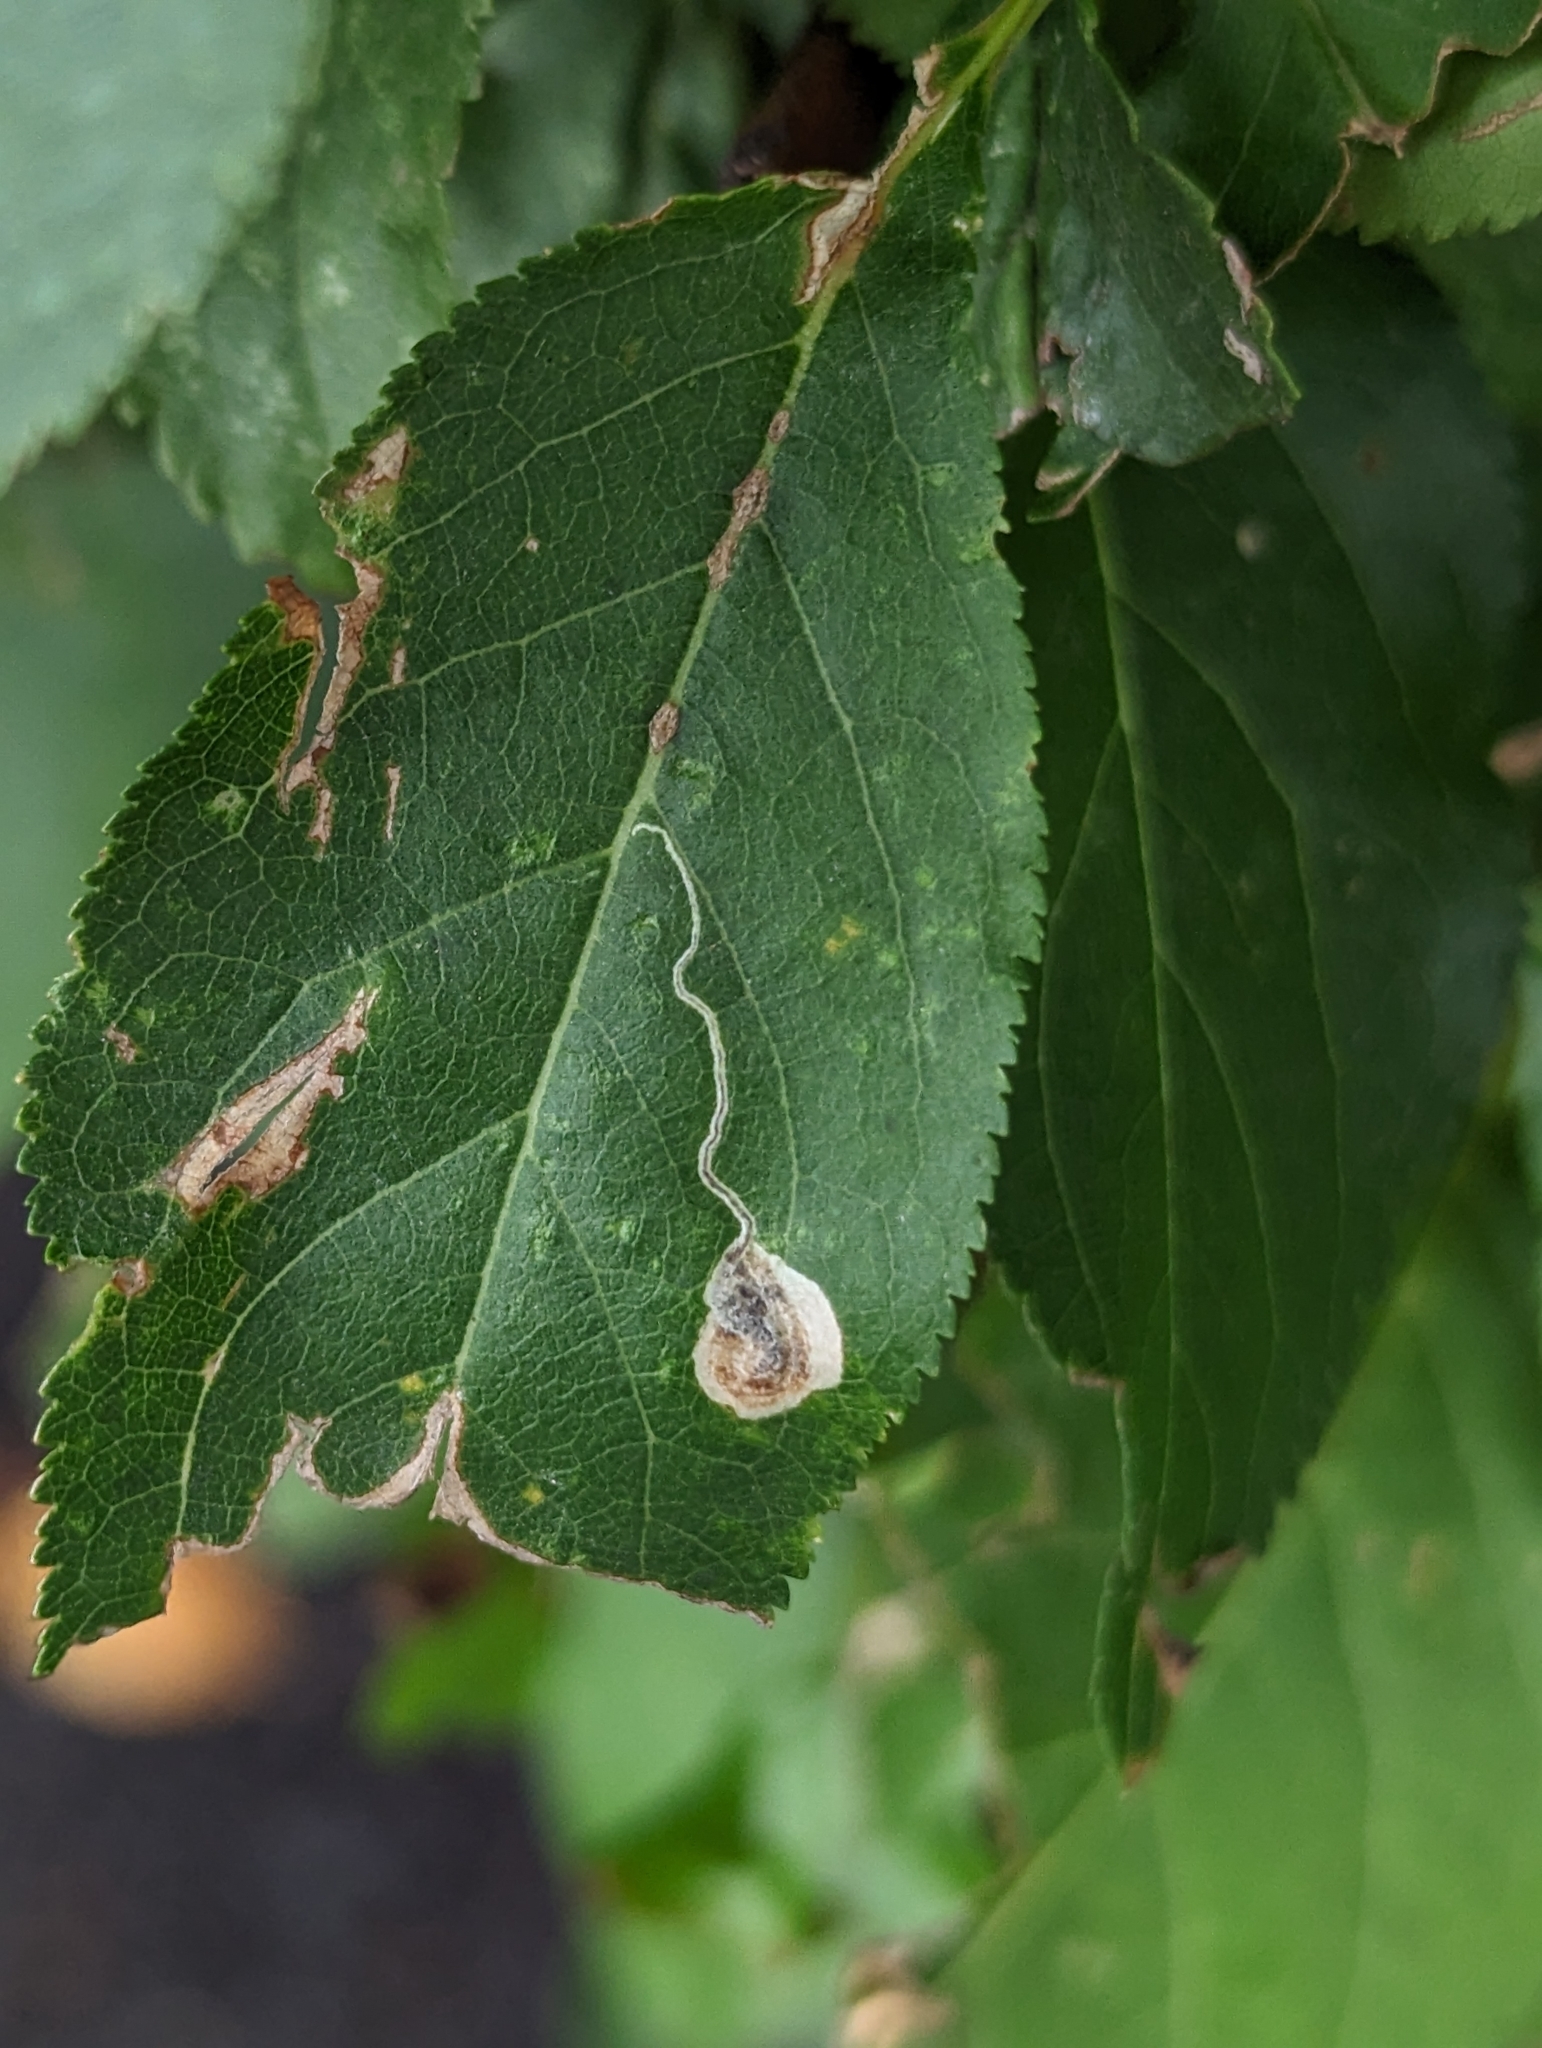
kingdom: Animalia
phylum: Arthropoda
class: Insecta
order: Lepidoptera
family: Nepticulidae
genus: Stigmella
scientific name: Stigmella plagicolella
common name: Scrubland pigmy
